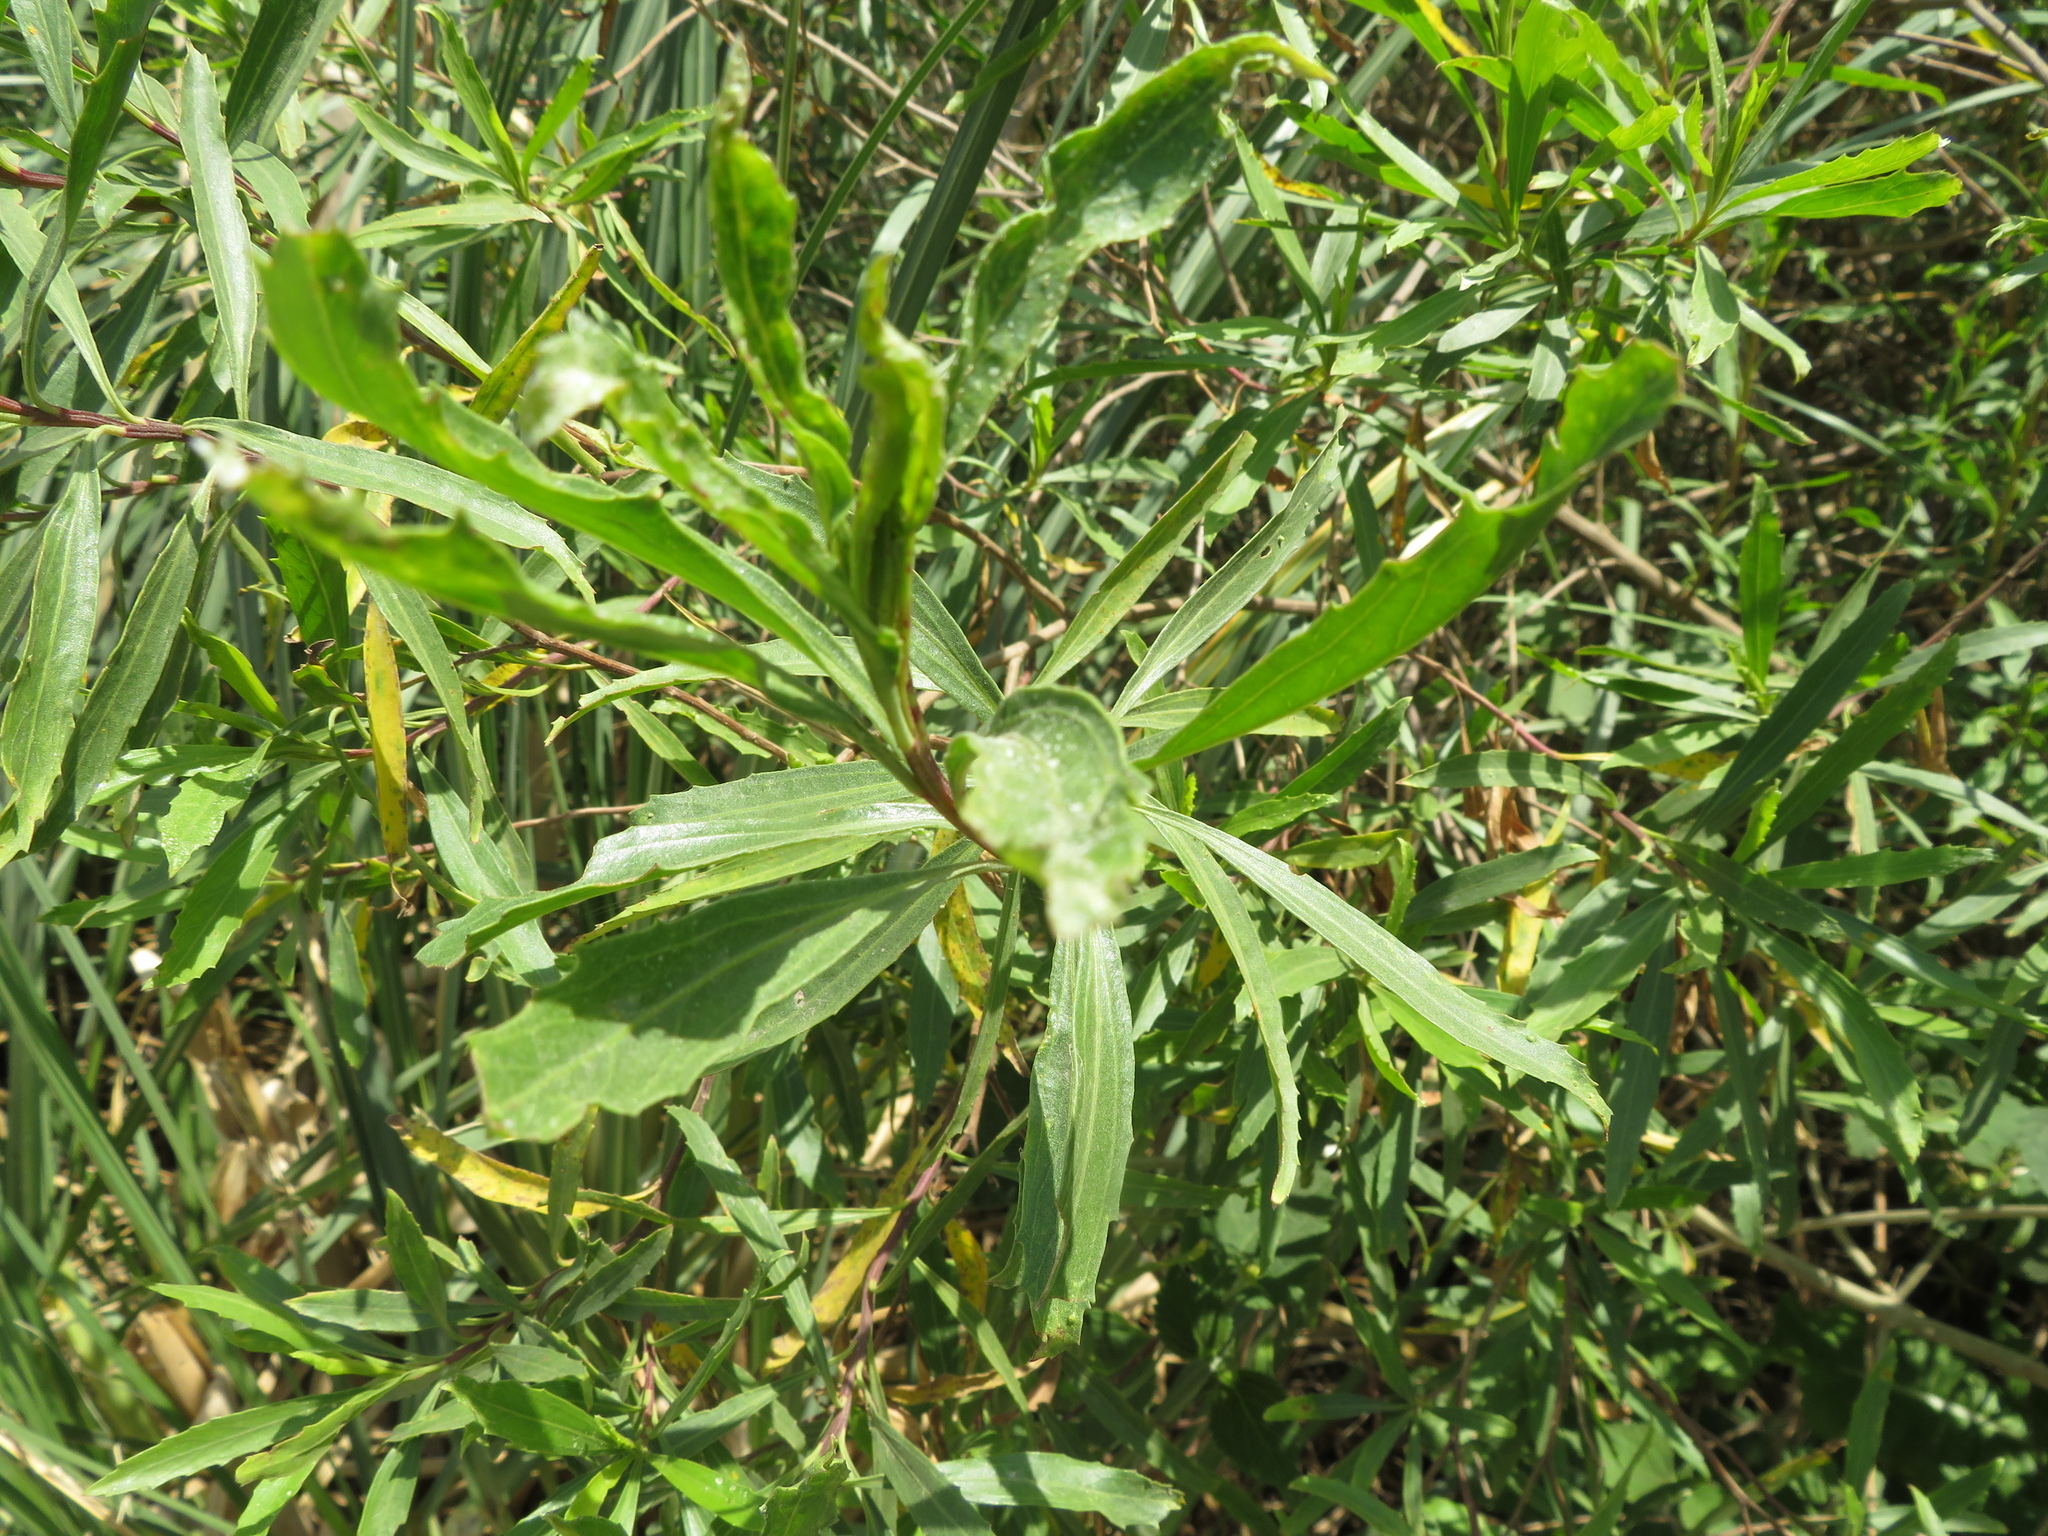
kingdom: Plantae
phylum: Tracheophyta
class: Magnoliopsida
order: Asterales
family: Asteraceae
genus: Baccharis
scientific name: Baccharis salicifolia
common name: Sticky baccharis
